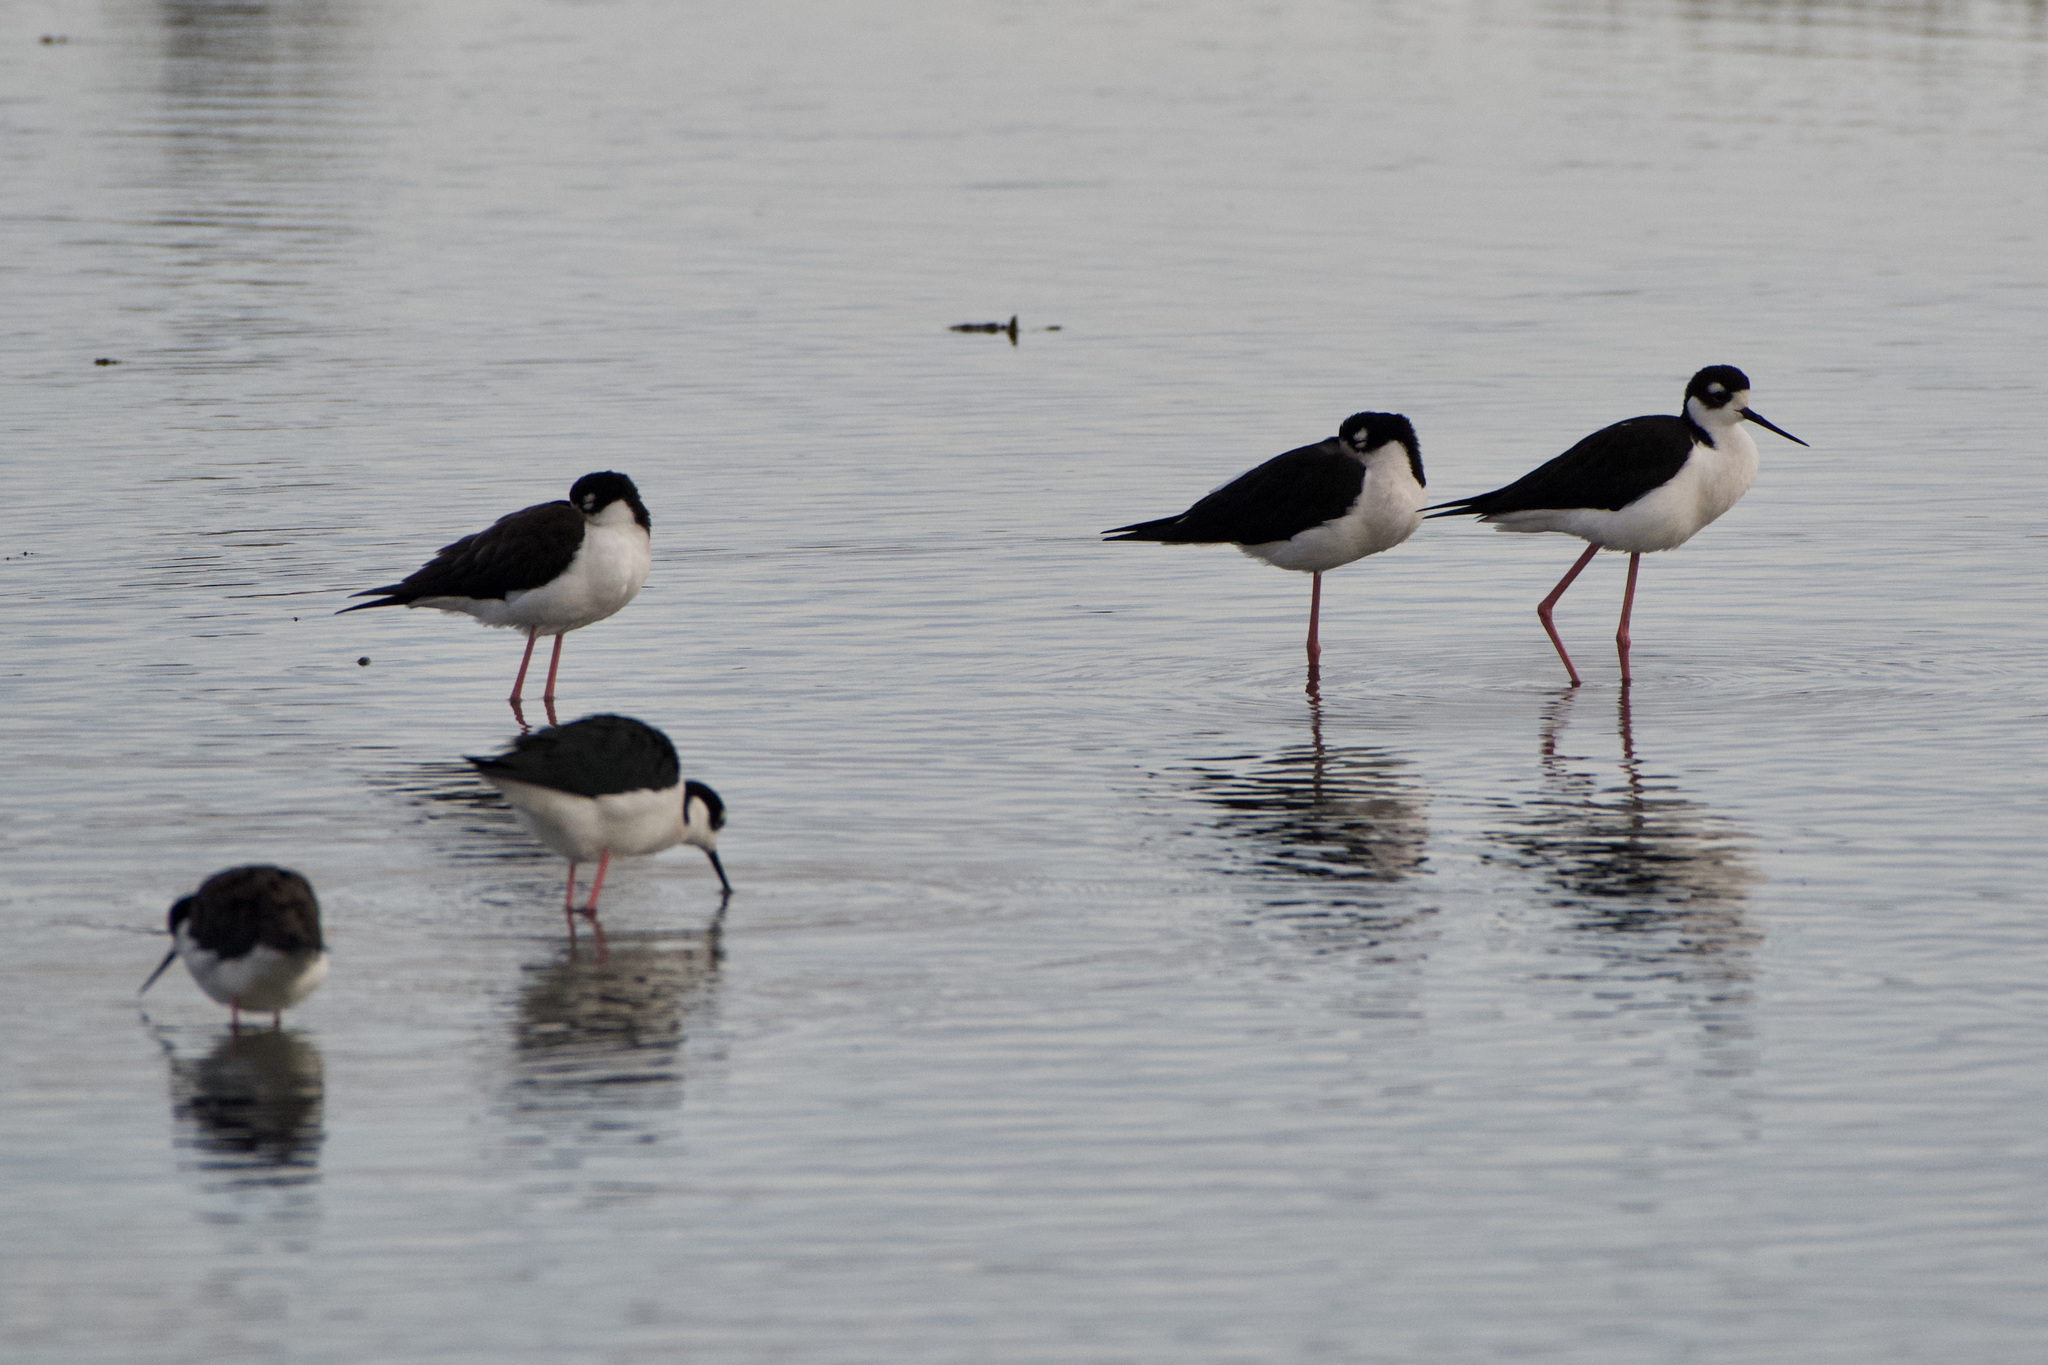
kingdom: Animalia
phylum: Chordata
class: Aves
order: Charadriiformes
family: Recurvirostridae
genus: Himantopus
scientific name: Himantopus mexicanus
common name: Black-necked stilt
